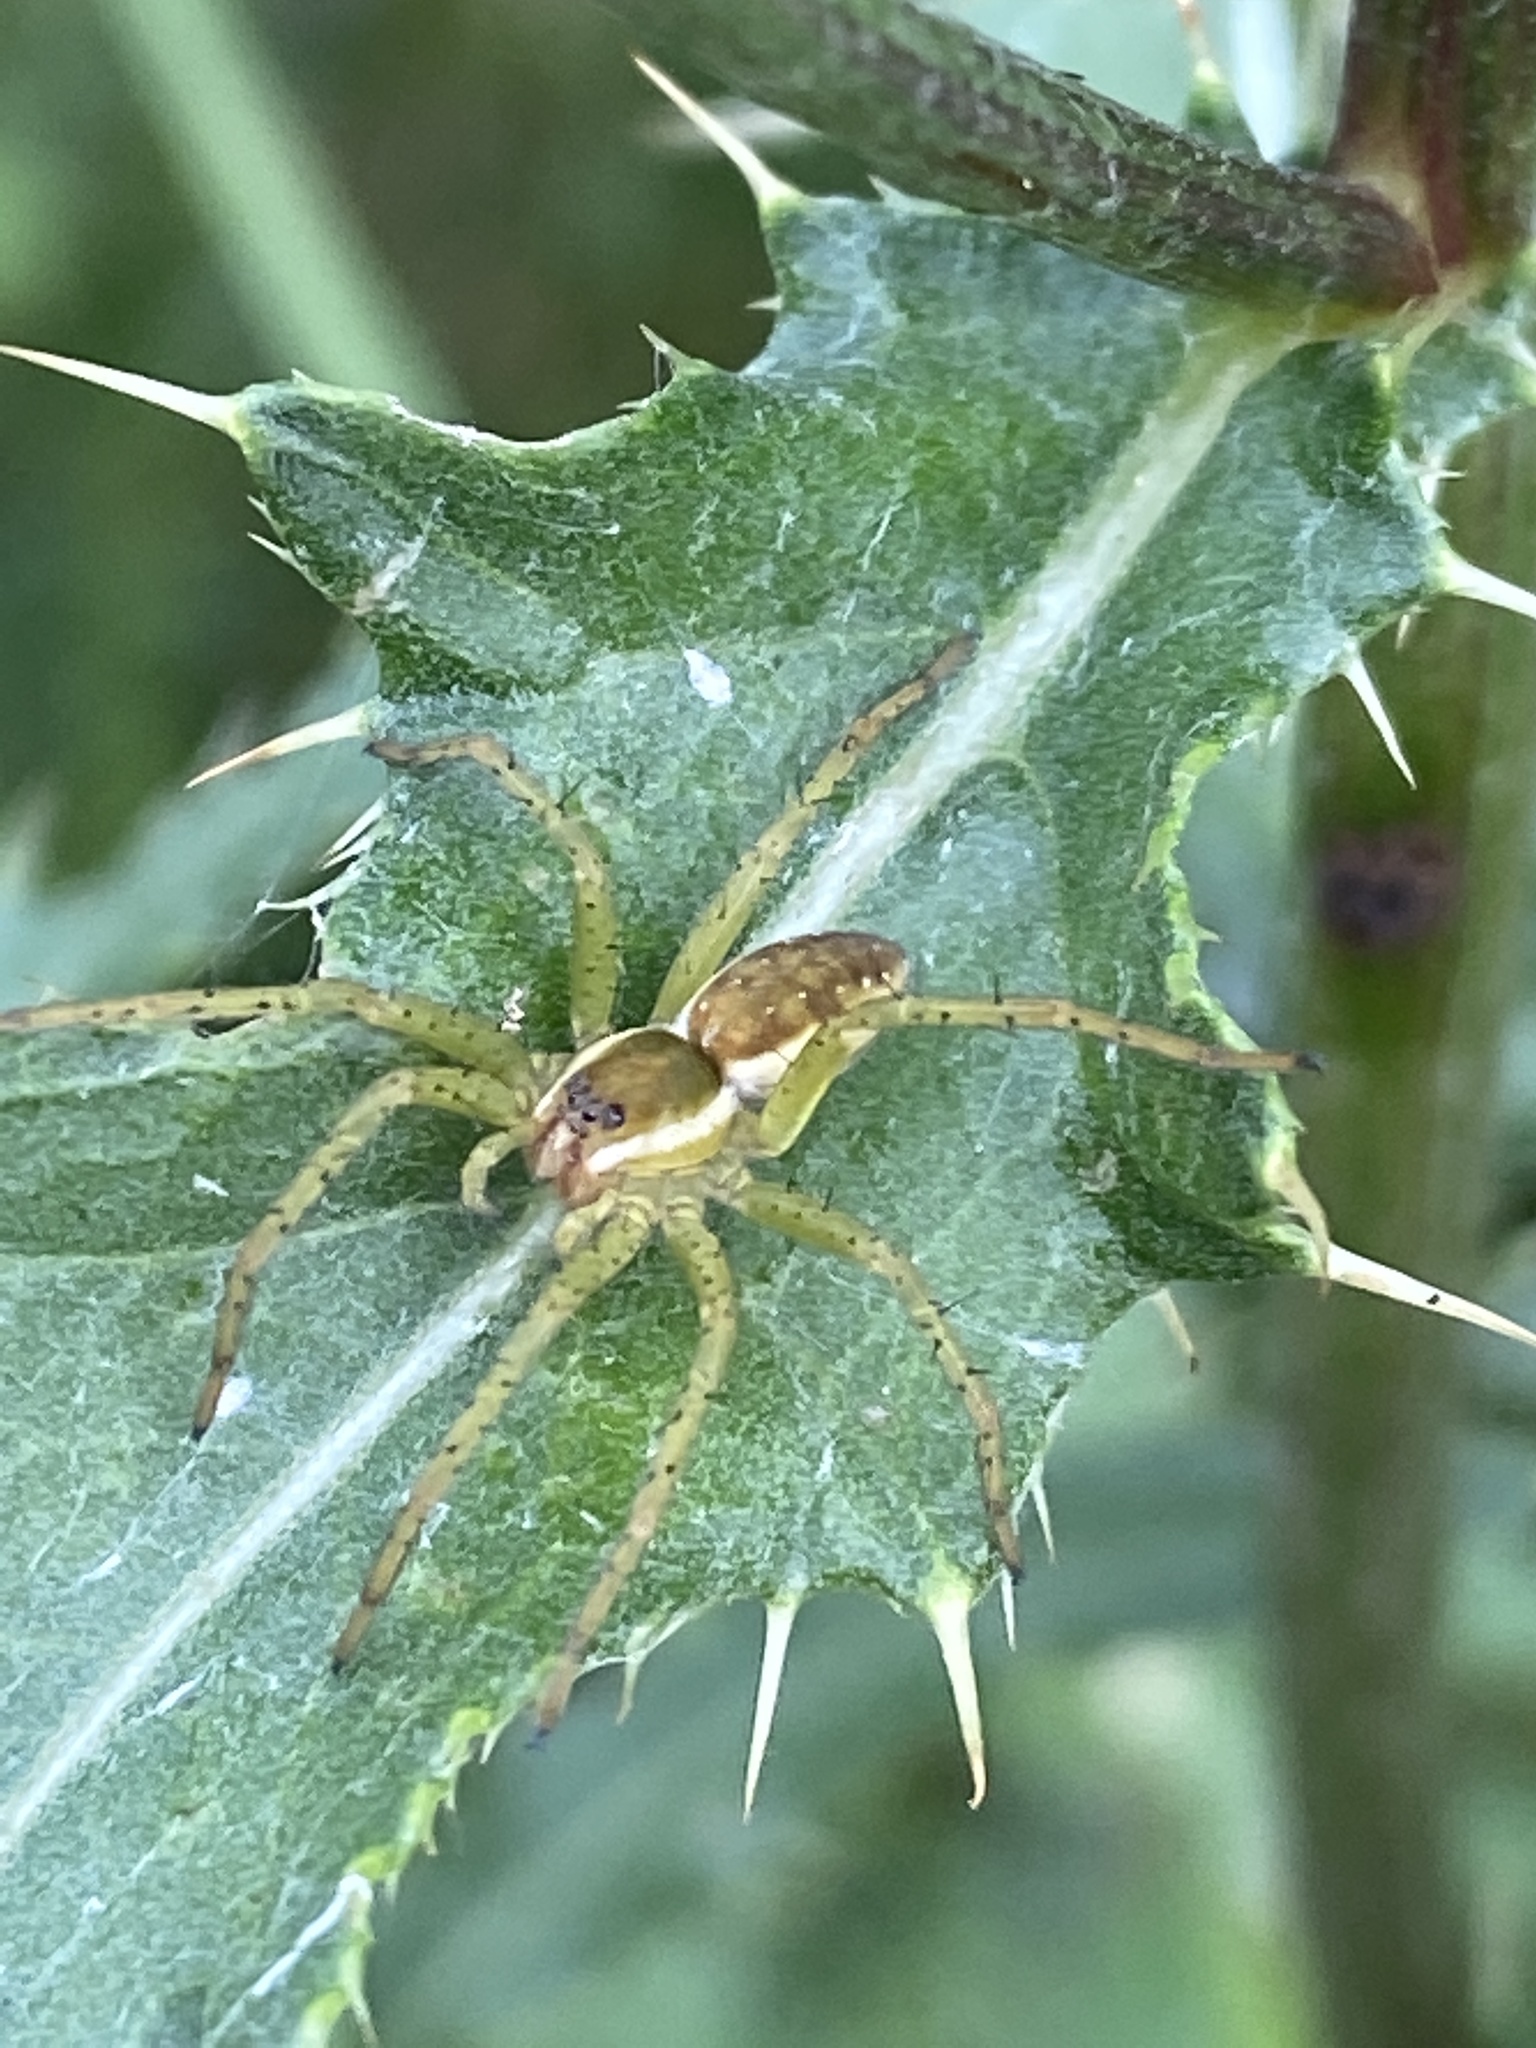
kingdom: Animalia
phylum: Arthropoda
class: Arachnida
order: Araneae
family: Pisauridae
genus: Dolomedes
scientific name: Dolomedes fimbriatus
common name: Raft spider
